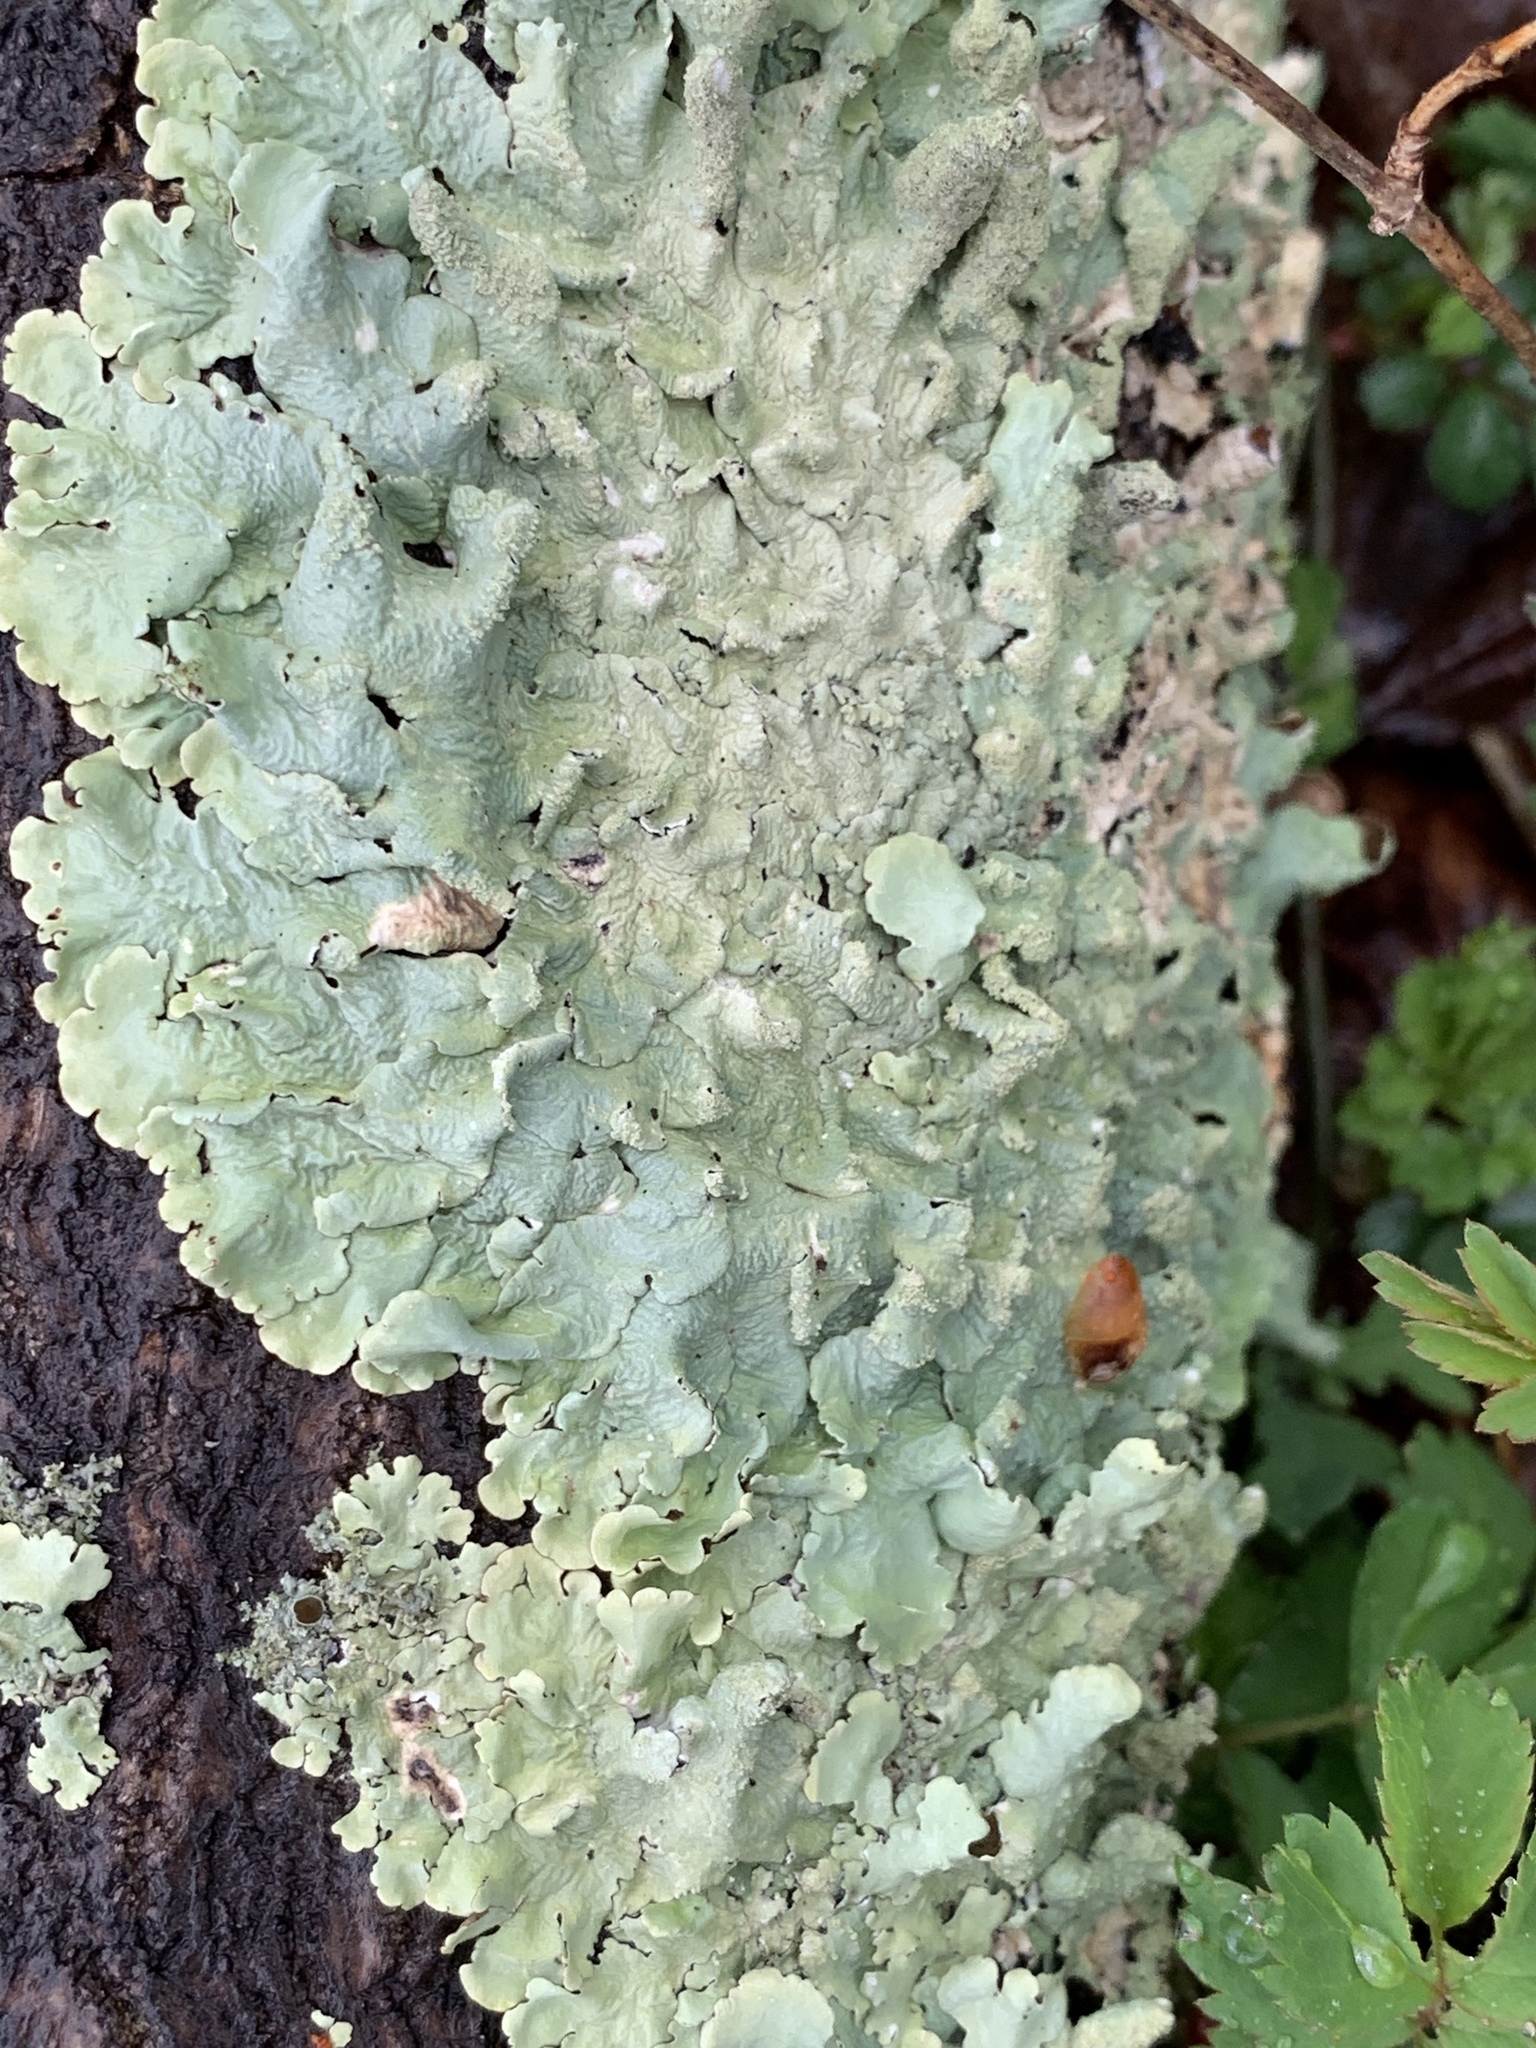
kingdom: Fungi
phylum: Ascomycota
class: Lecanoromycetes
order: Lecanorales
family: Parmeliaceae
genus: Flavoparmelia
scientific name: Flavoparmelia caperata
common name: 40-mile per hour lichen
